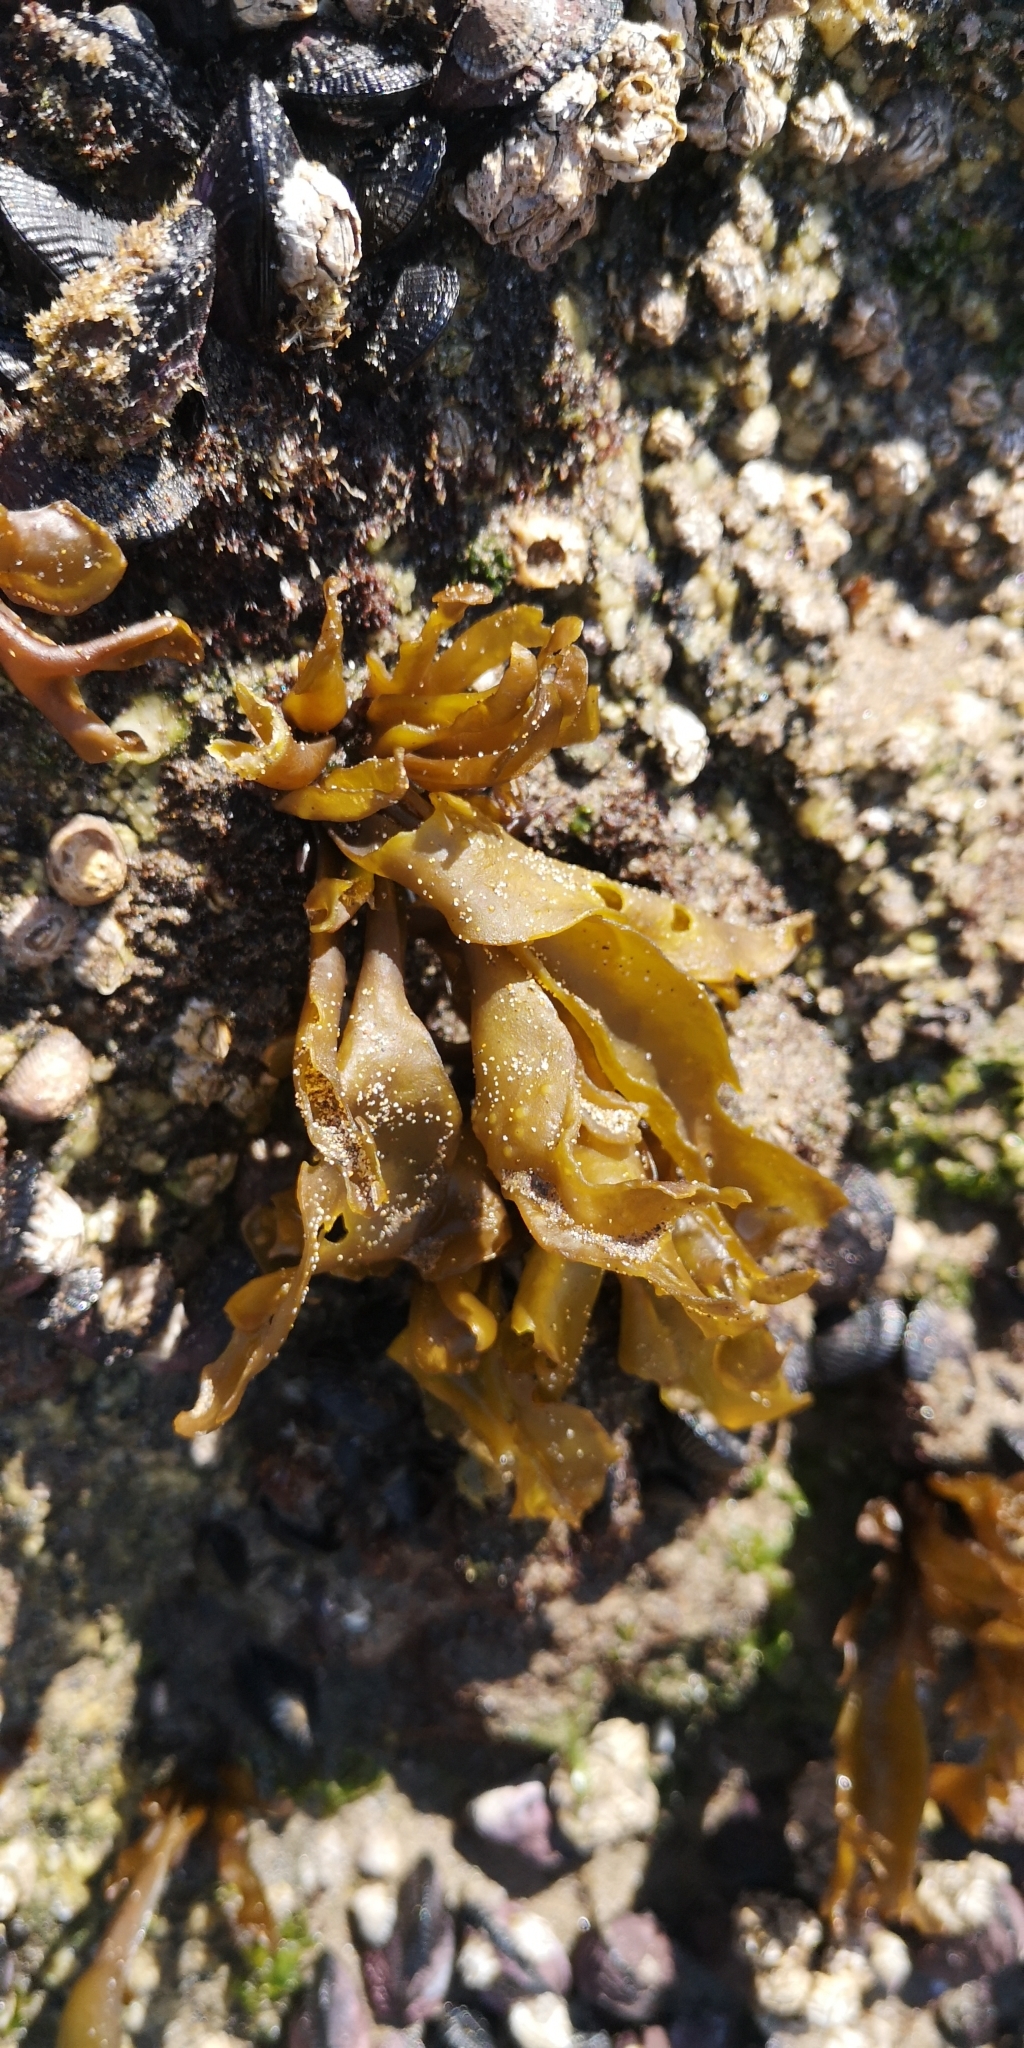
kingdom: Plantae
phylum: Rhodophyta
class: Florideophyceae
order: Gigartinales
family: Gigartinaceae
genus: Mazzaella
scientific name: Mazzaella laminarioides
